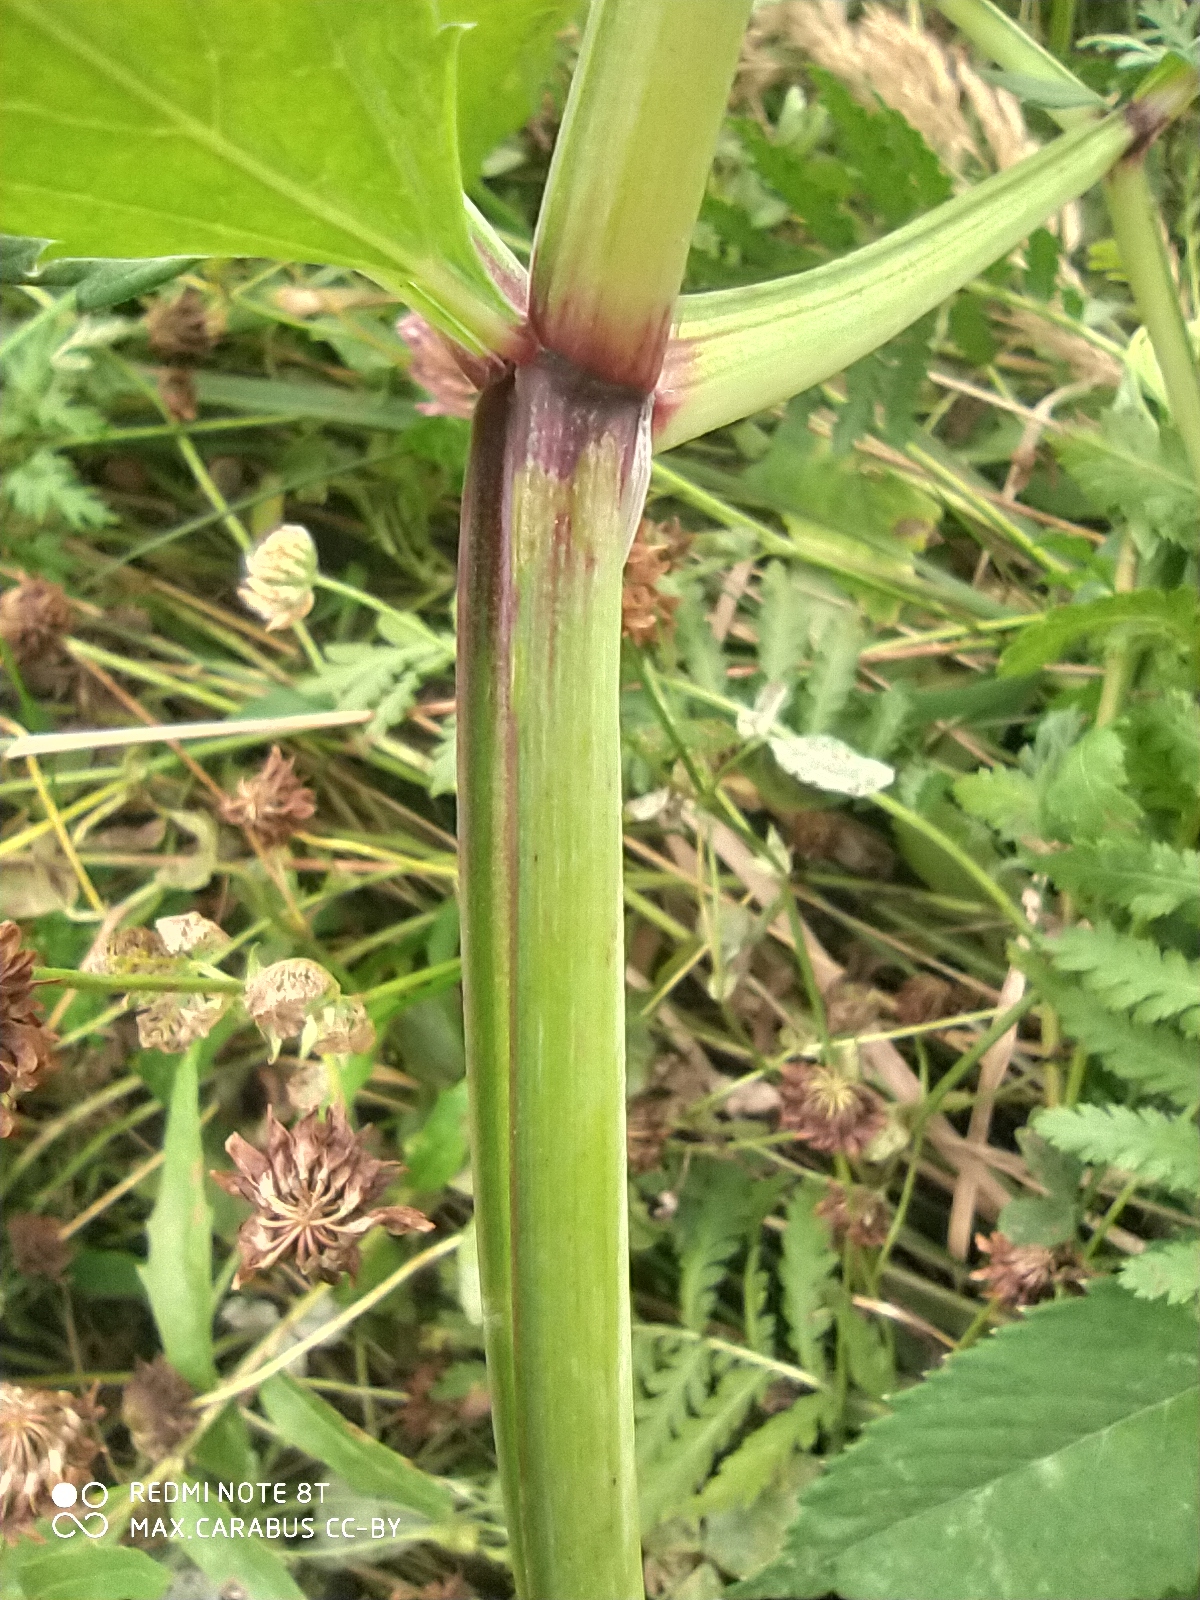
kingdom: Plantae
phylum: Tracheophyta
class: Magnoliopsida
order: Apiales
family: Apiaceae
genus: Angelica
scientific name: Angelica sylvestris
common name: Wild angelica
